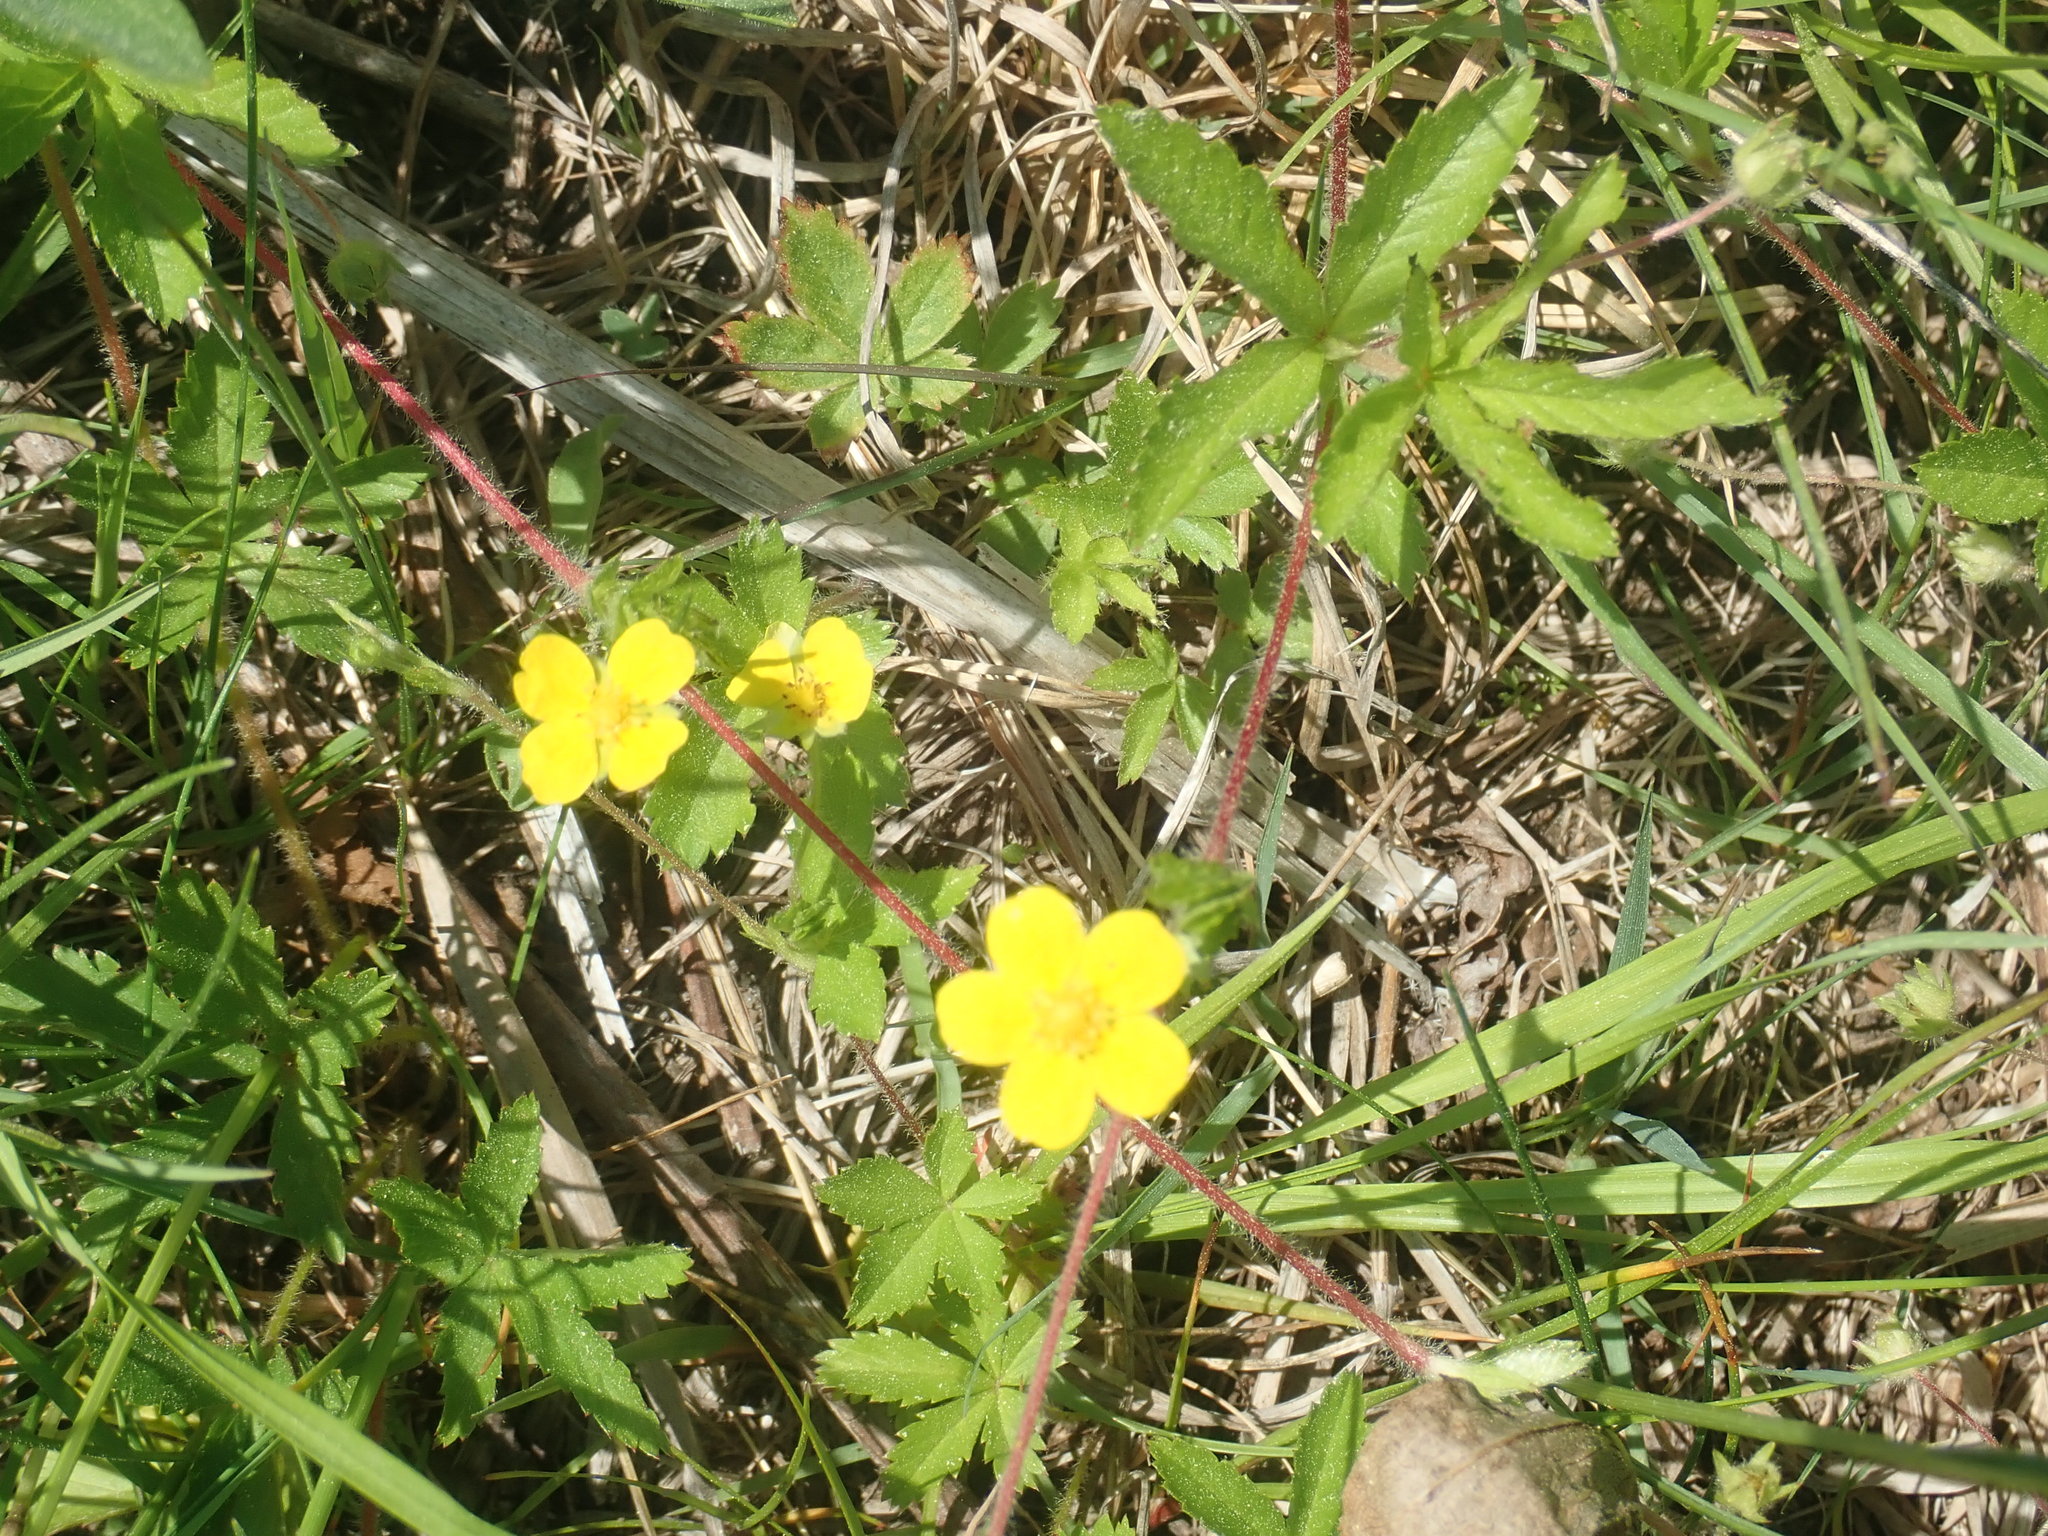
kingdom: Plantae
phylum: Tracheophyta
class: Magnoliopsida
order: Rosales
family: Rosaceae
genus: Potentilla
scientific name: Potentilla simplex
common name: Old field cinquefoil
